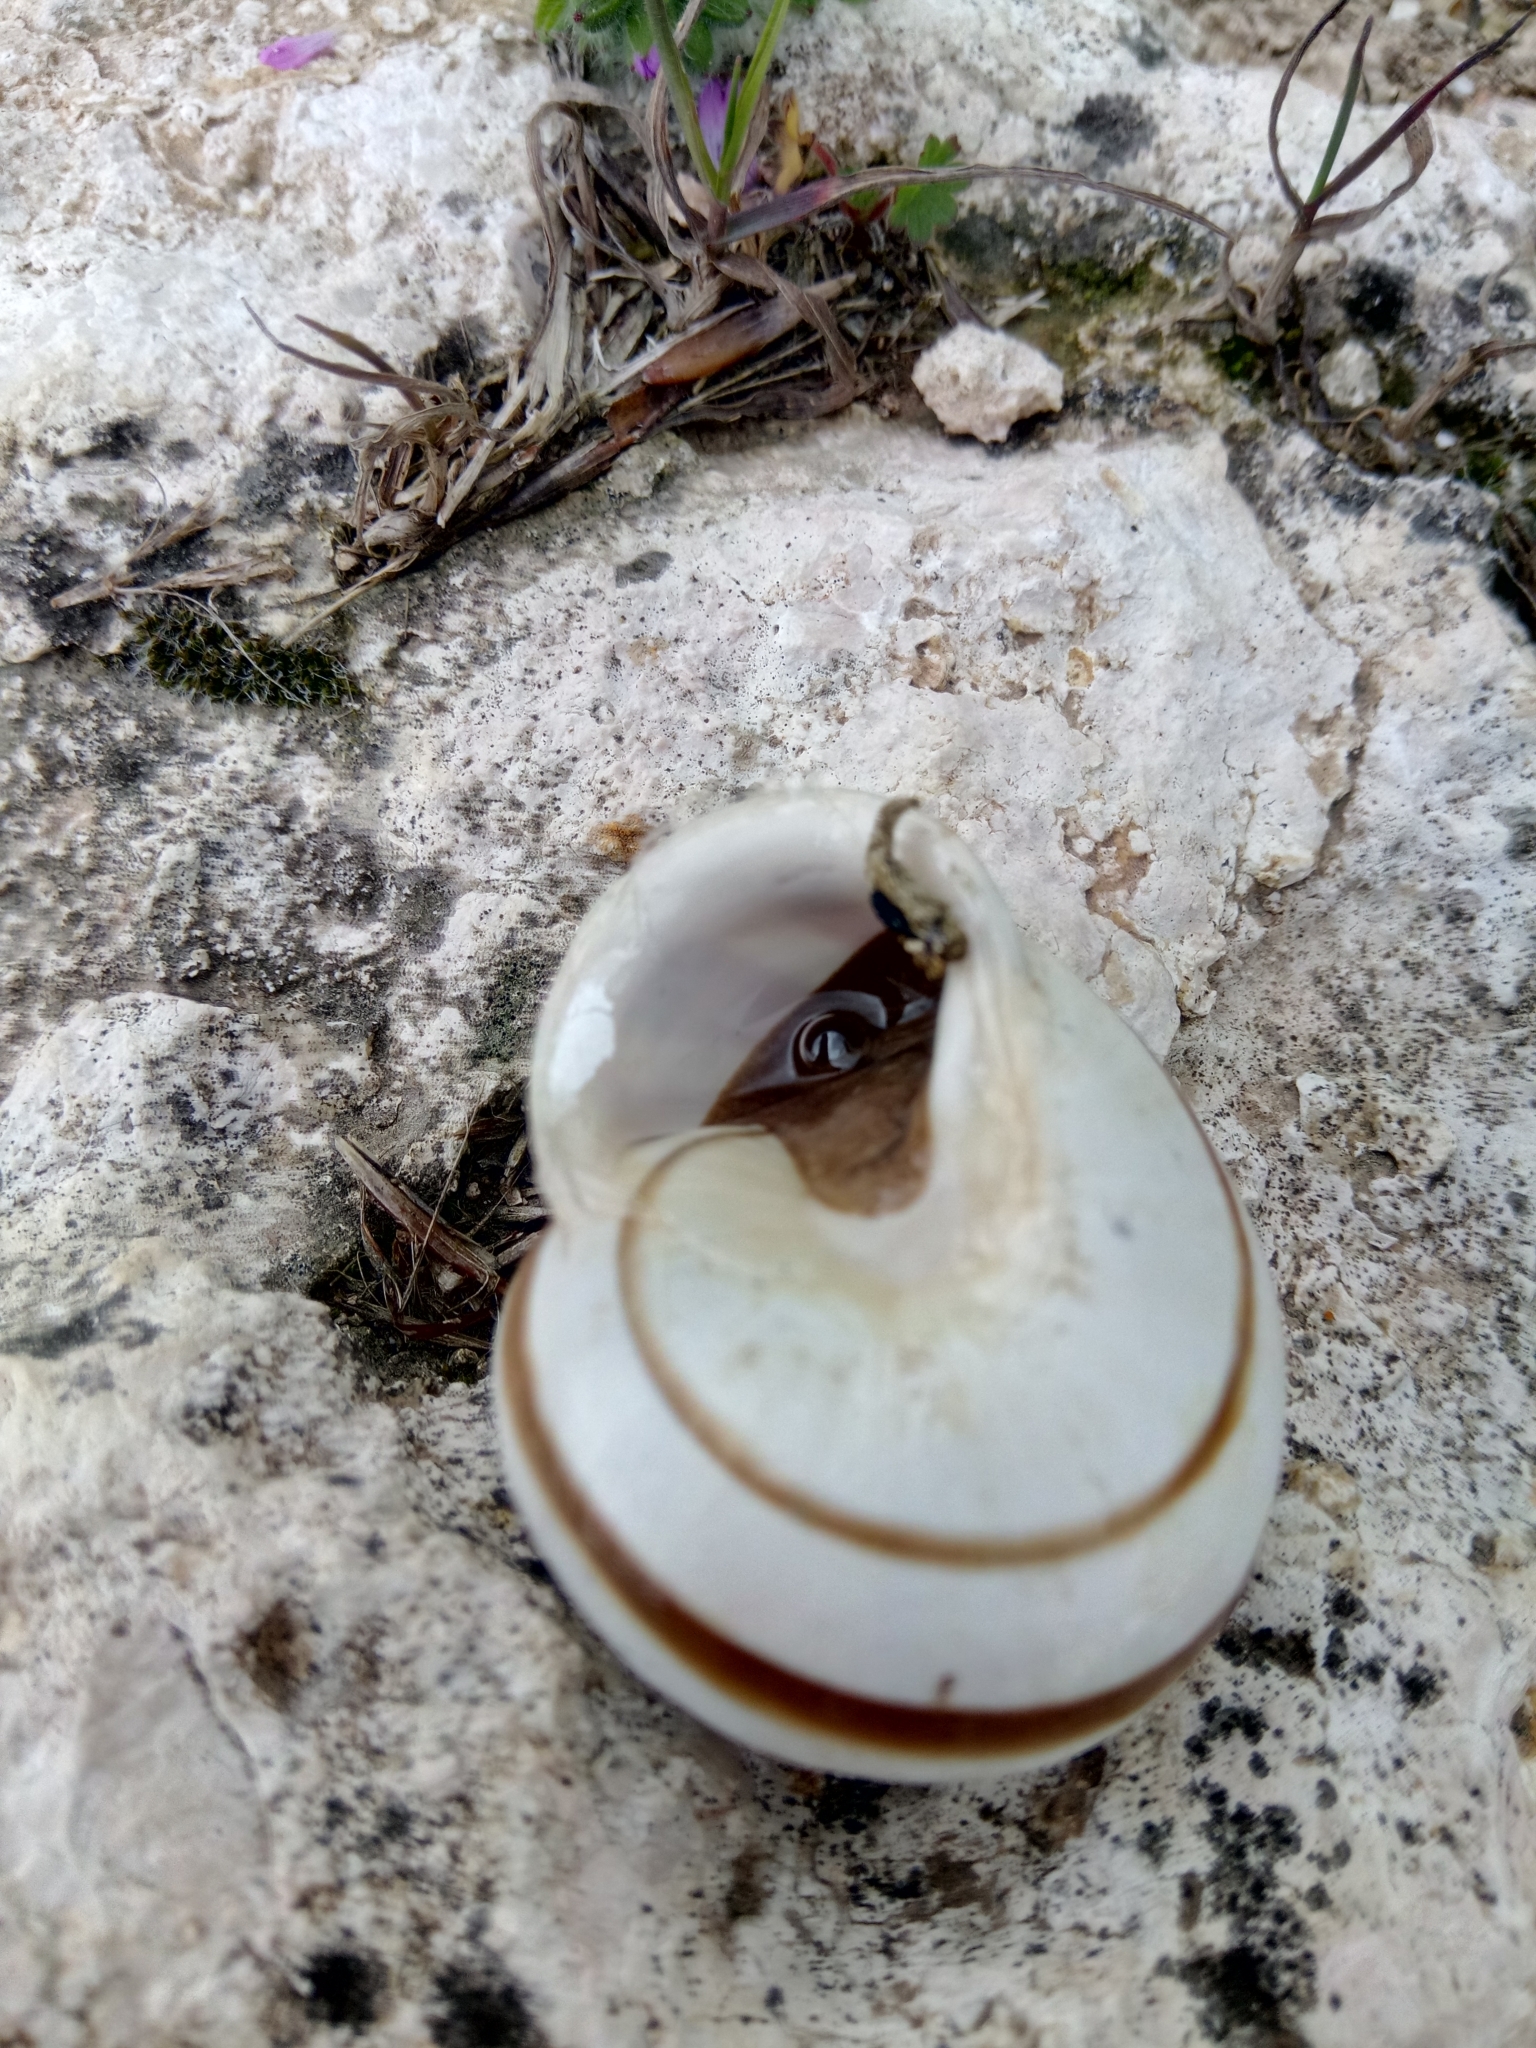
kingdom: Animalia
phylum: Mollusca
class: Gastropoda
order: Stylommatophora
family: Helicidae
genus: Eobania
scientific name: Eobania constantina
